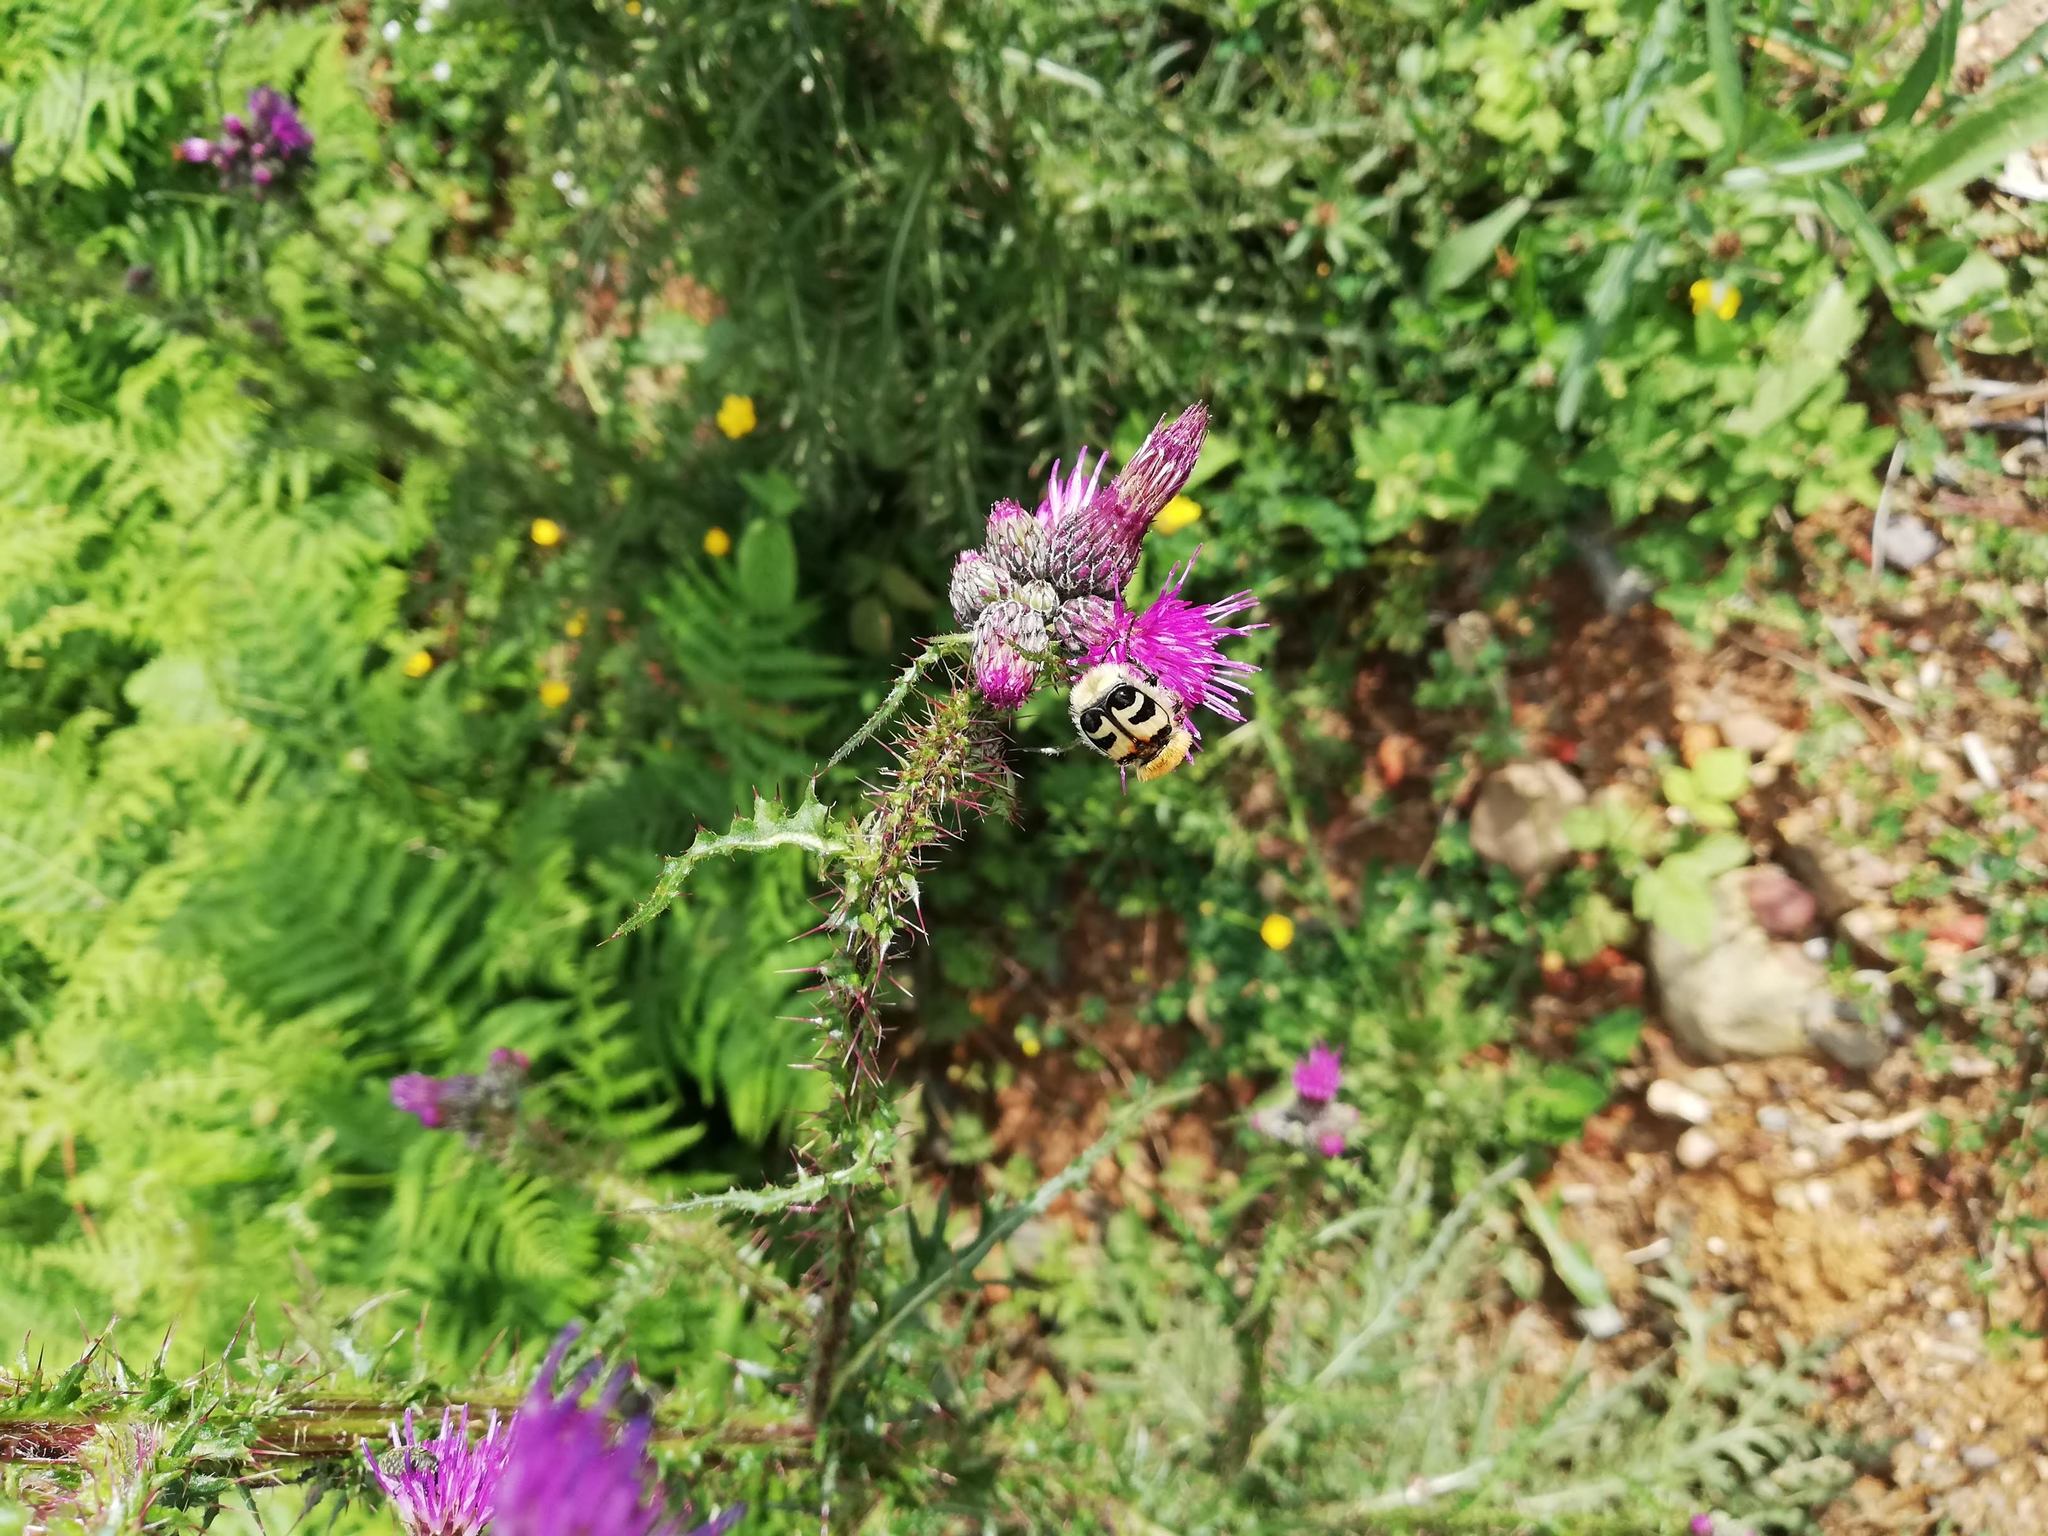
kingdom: Animalia
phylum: Arthropoda
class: Insecta
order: Coleoptera
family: Scarabaeidae
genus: Trichius
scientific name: Trichius fasciatus
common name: Bee beetle
